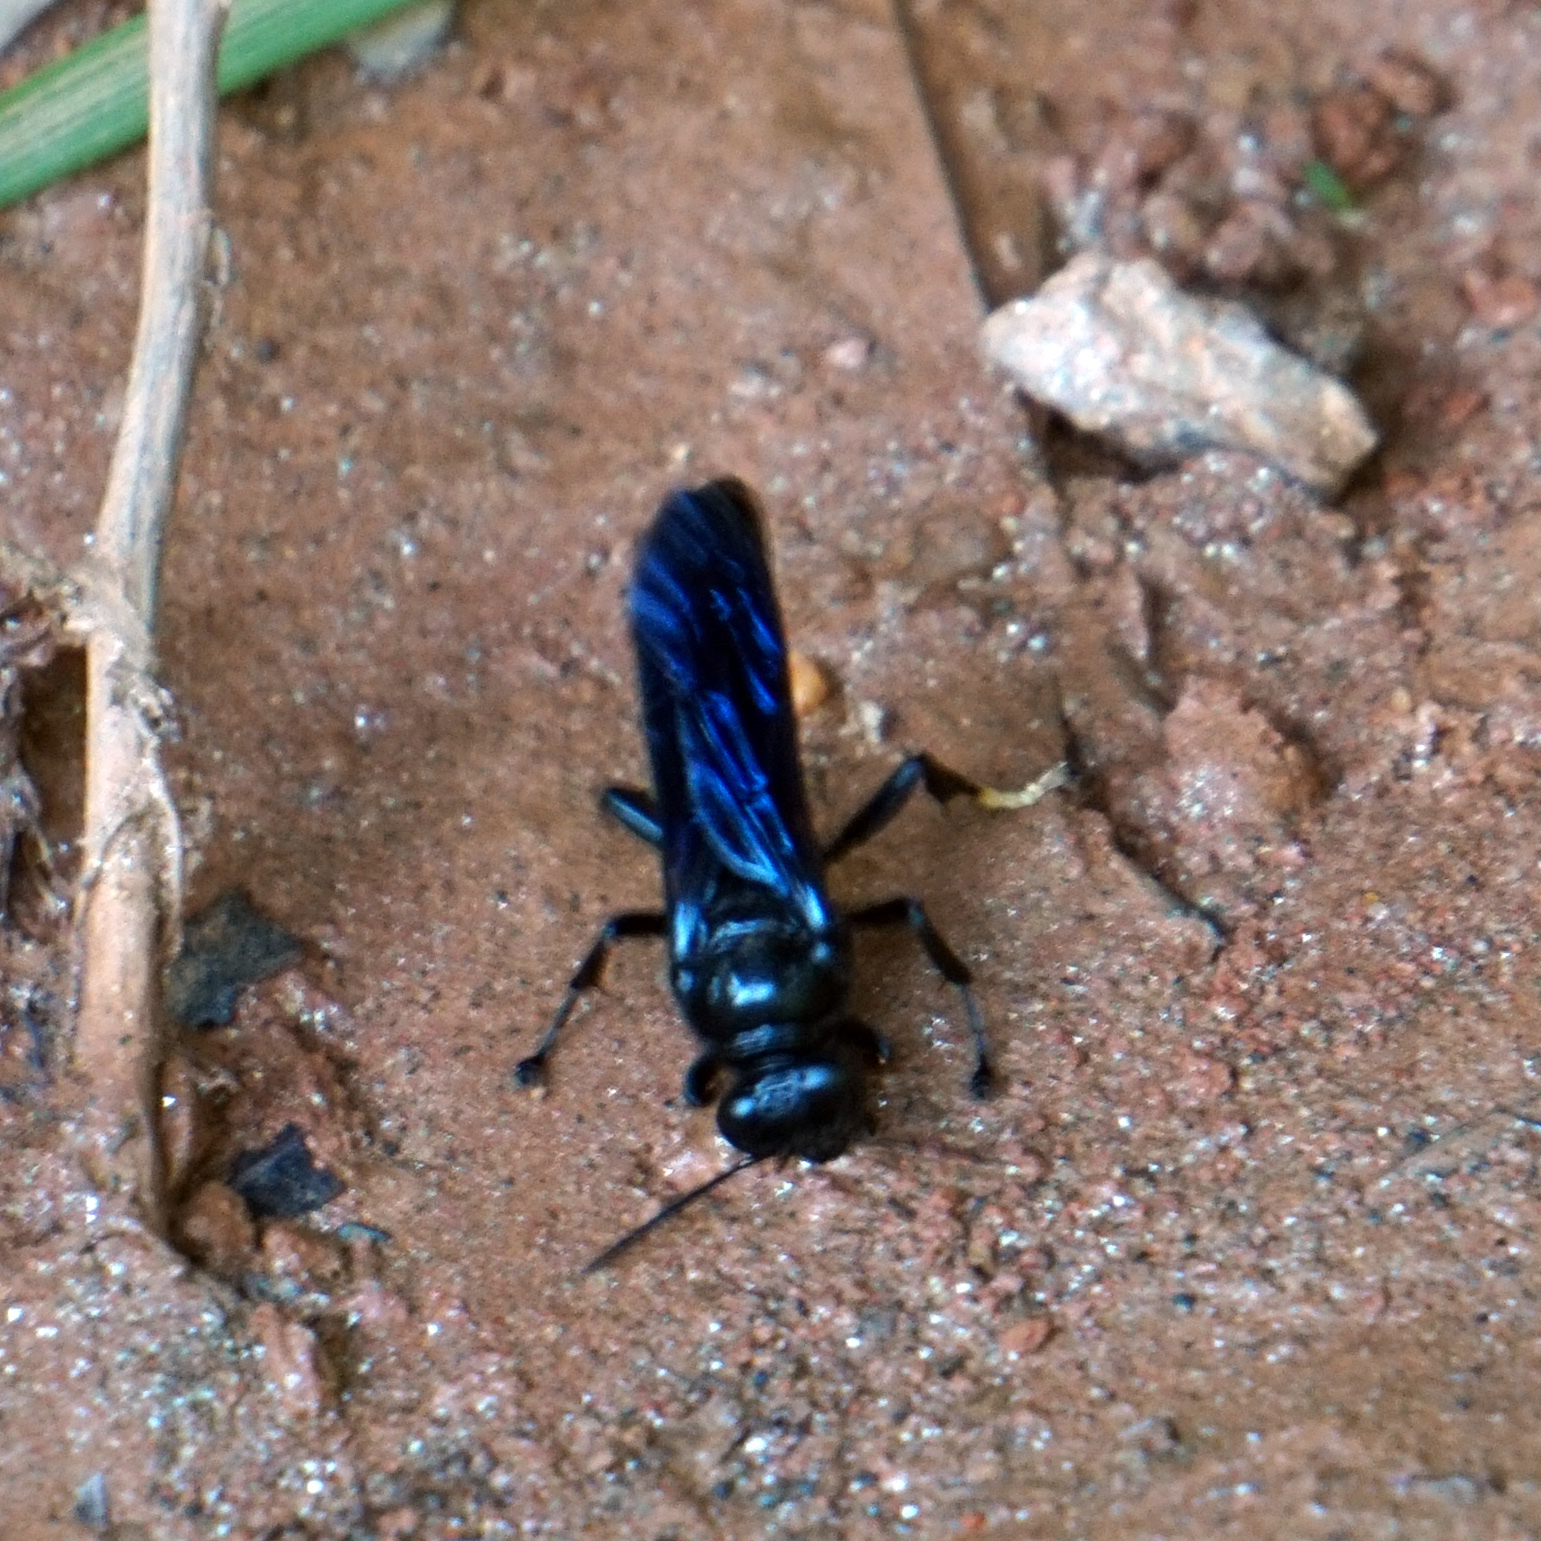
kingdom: Animalia
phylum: Arthropoda
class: Insecta
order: Hymenoptera
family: Crabronidae
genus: Trypoxylon
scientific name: Trypoxylon politum
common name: Organ-pipe mud-dauber wasp
